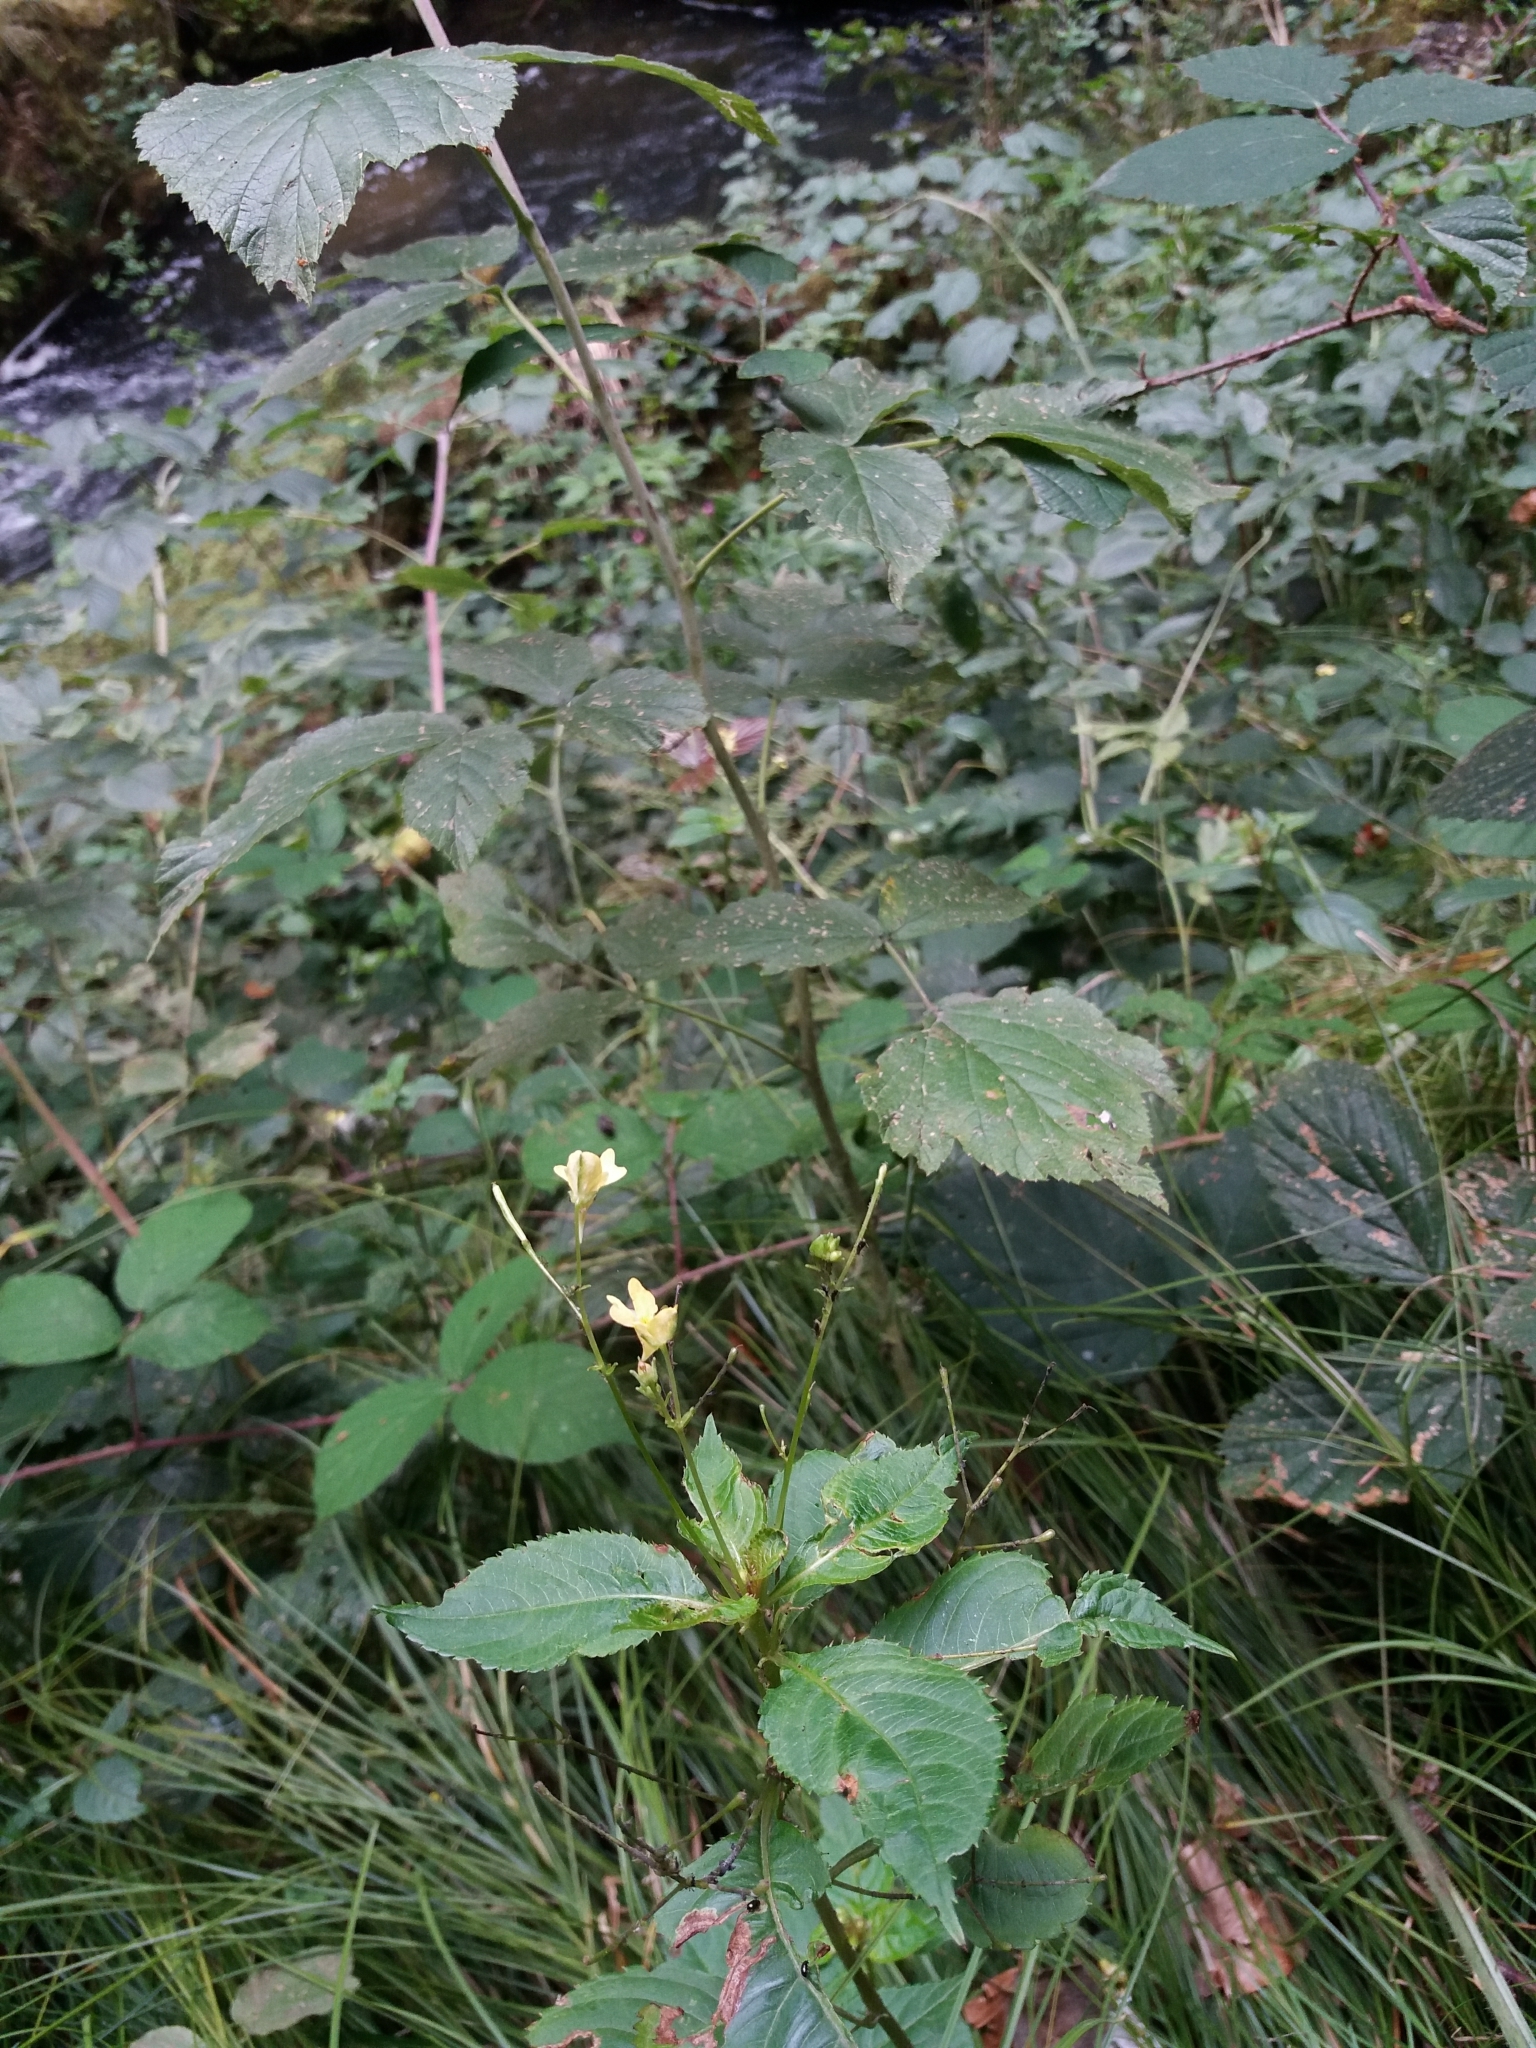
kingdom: Plantae
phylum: Tracheophyta
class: Magnoliopsida
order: Ericales
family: Balsaminaceae
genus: Impatiens
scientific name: Impatiens parviflora
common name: Small balsam
